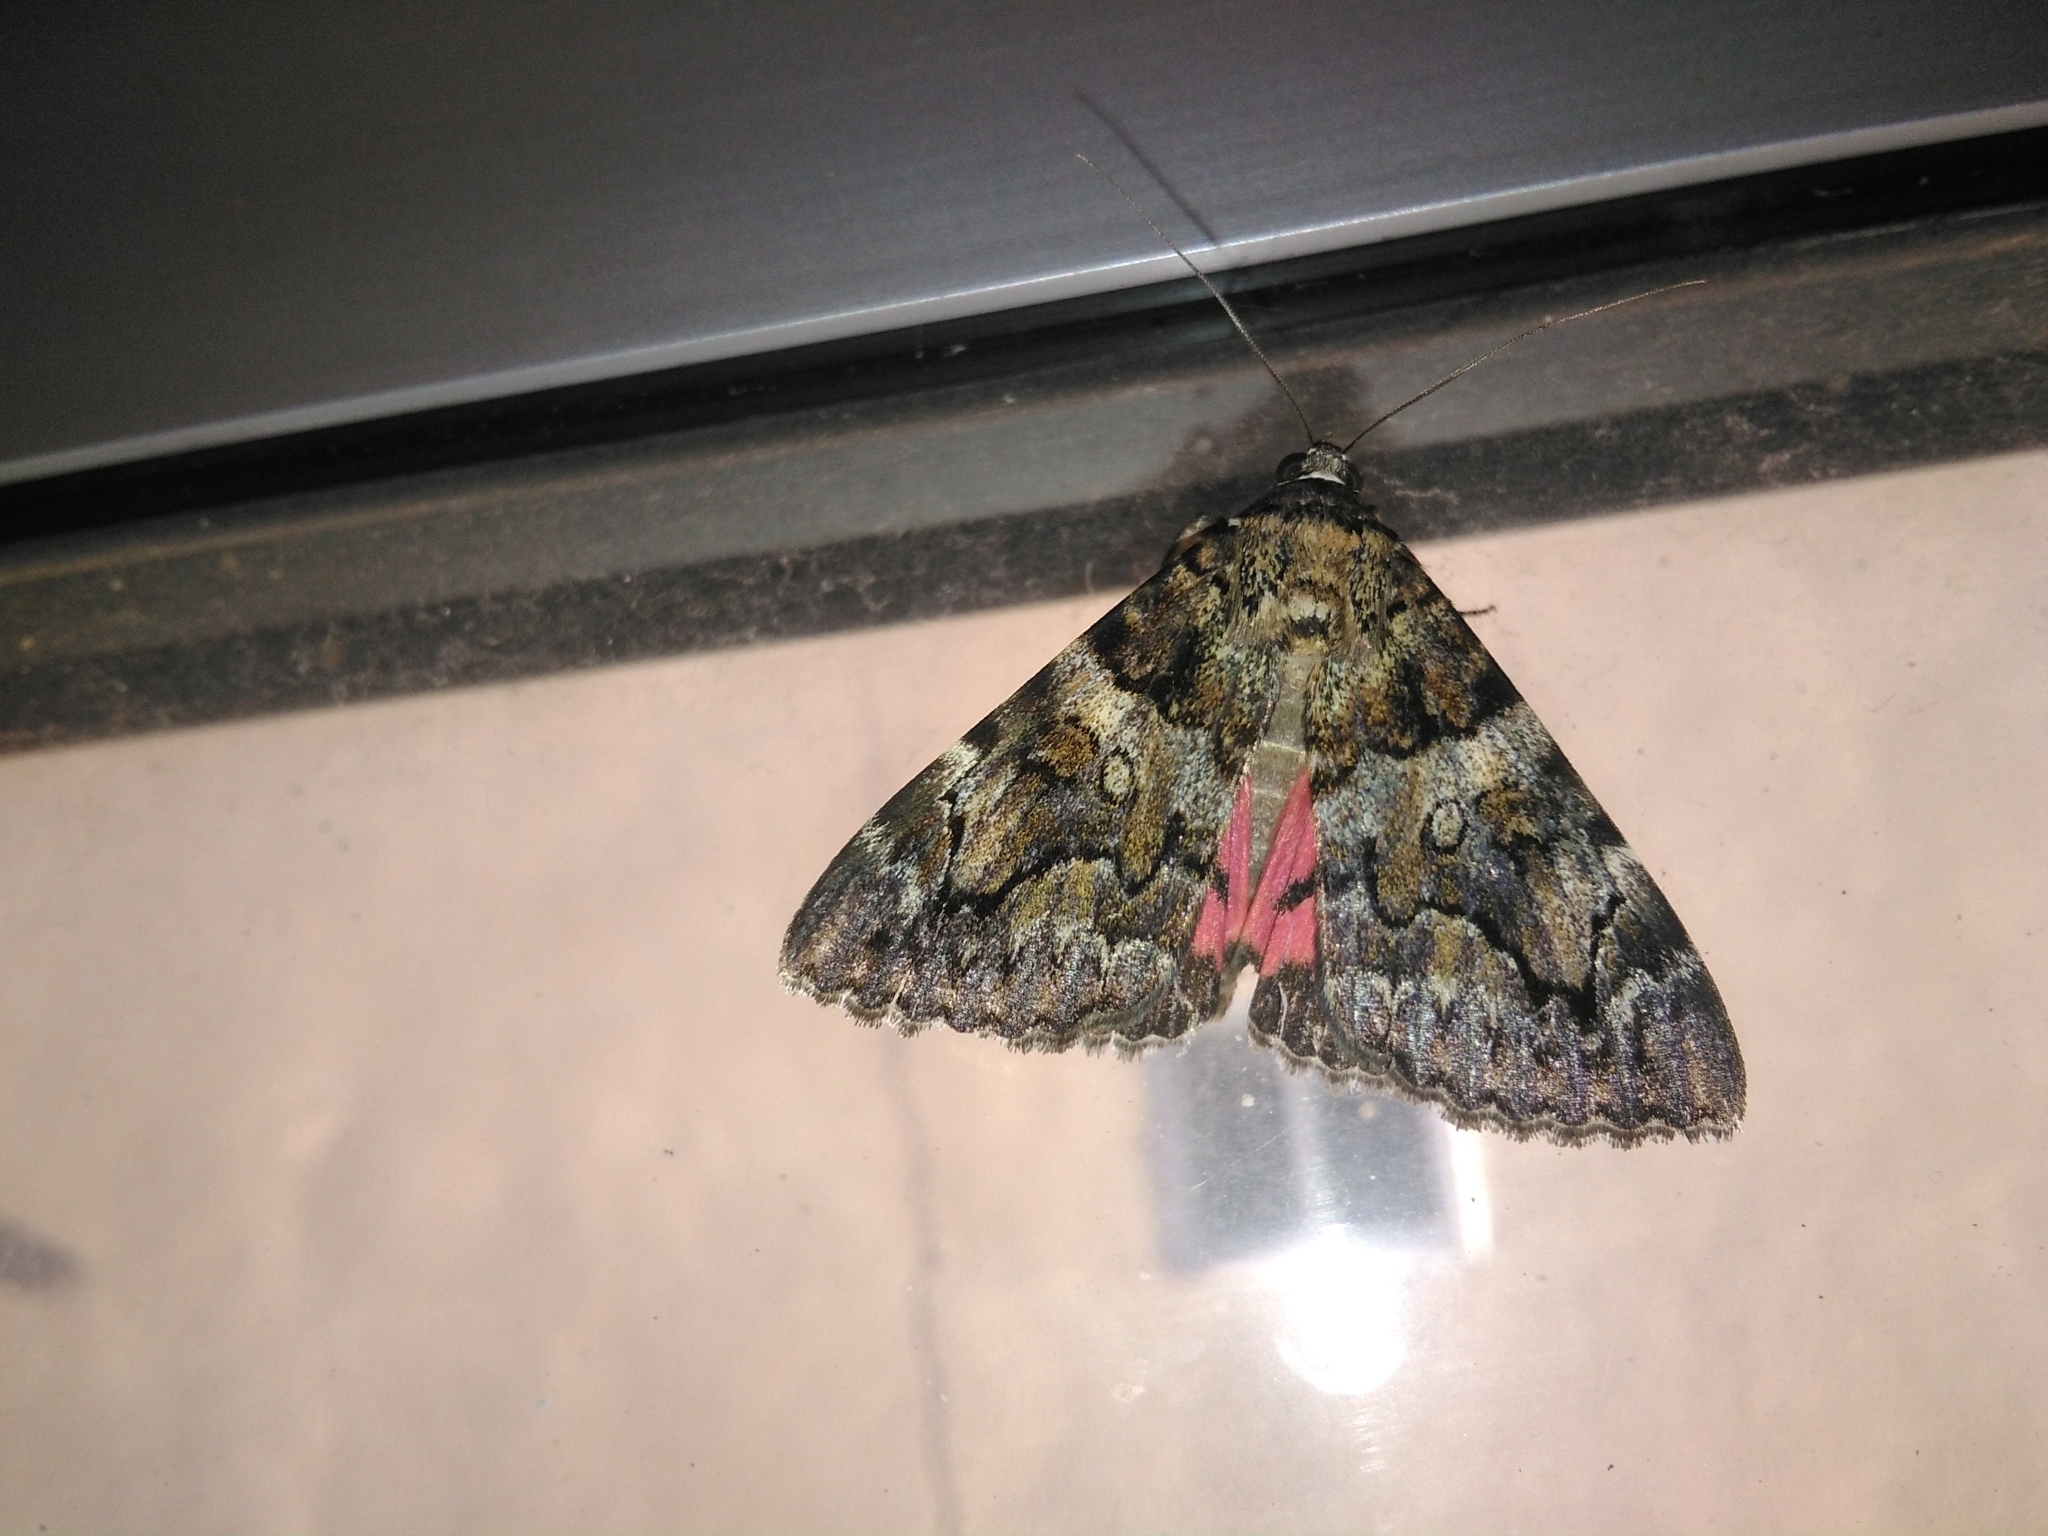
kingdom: Animalia
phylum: Arthropoda
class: Insecta
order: Lepidoptera
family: Erebidae
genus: Catocala
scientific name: Catocala coniuncta
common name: Minsmere crimson underwing
